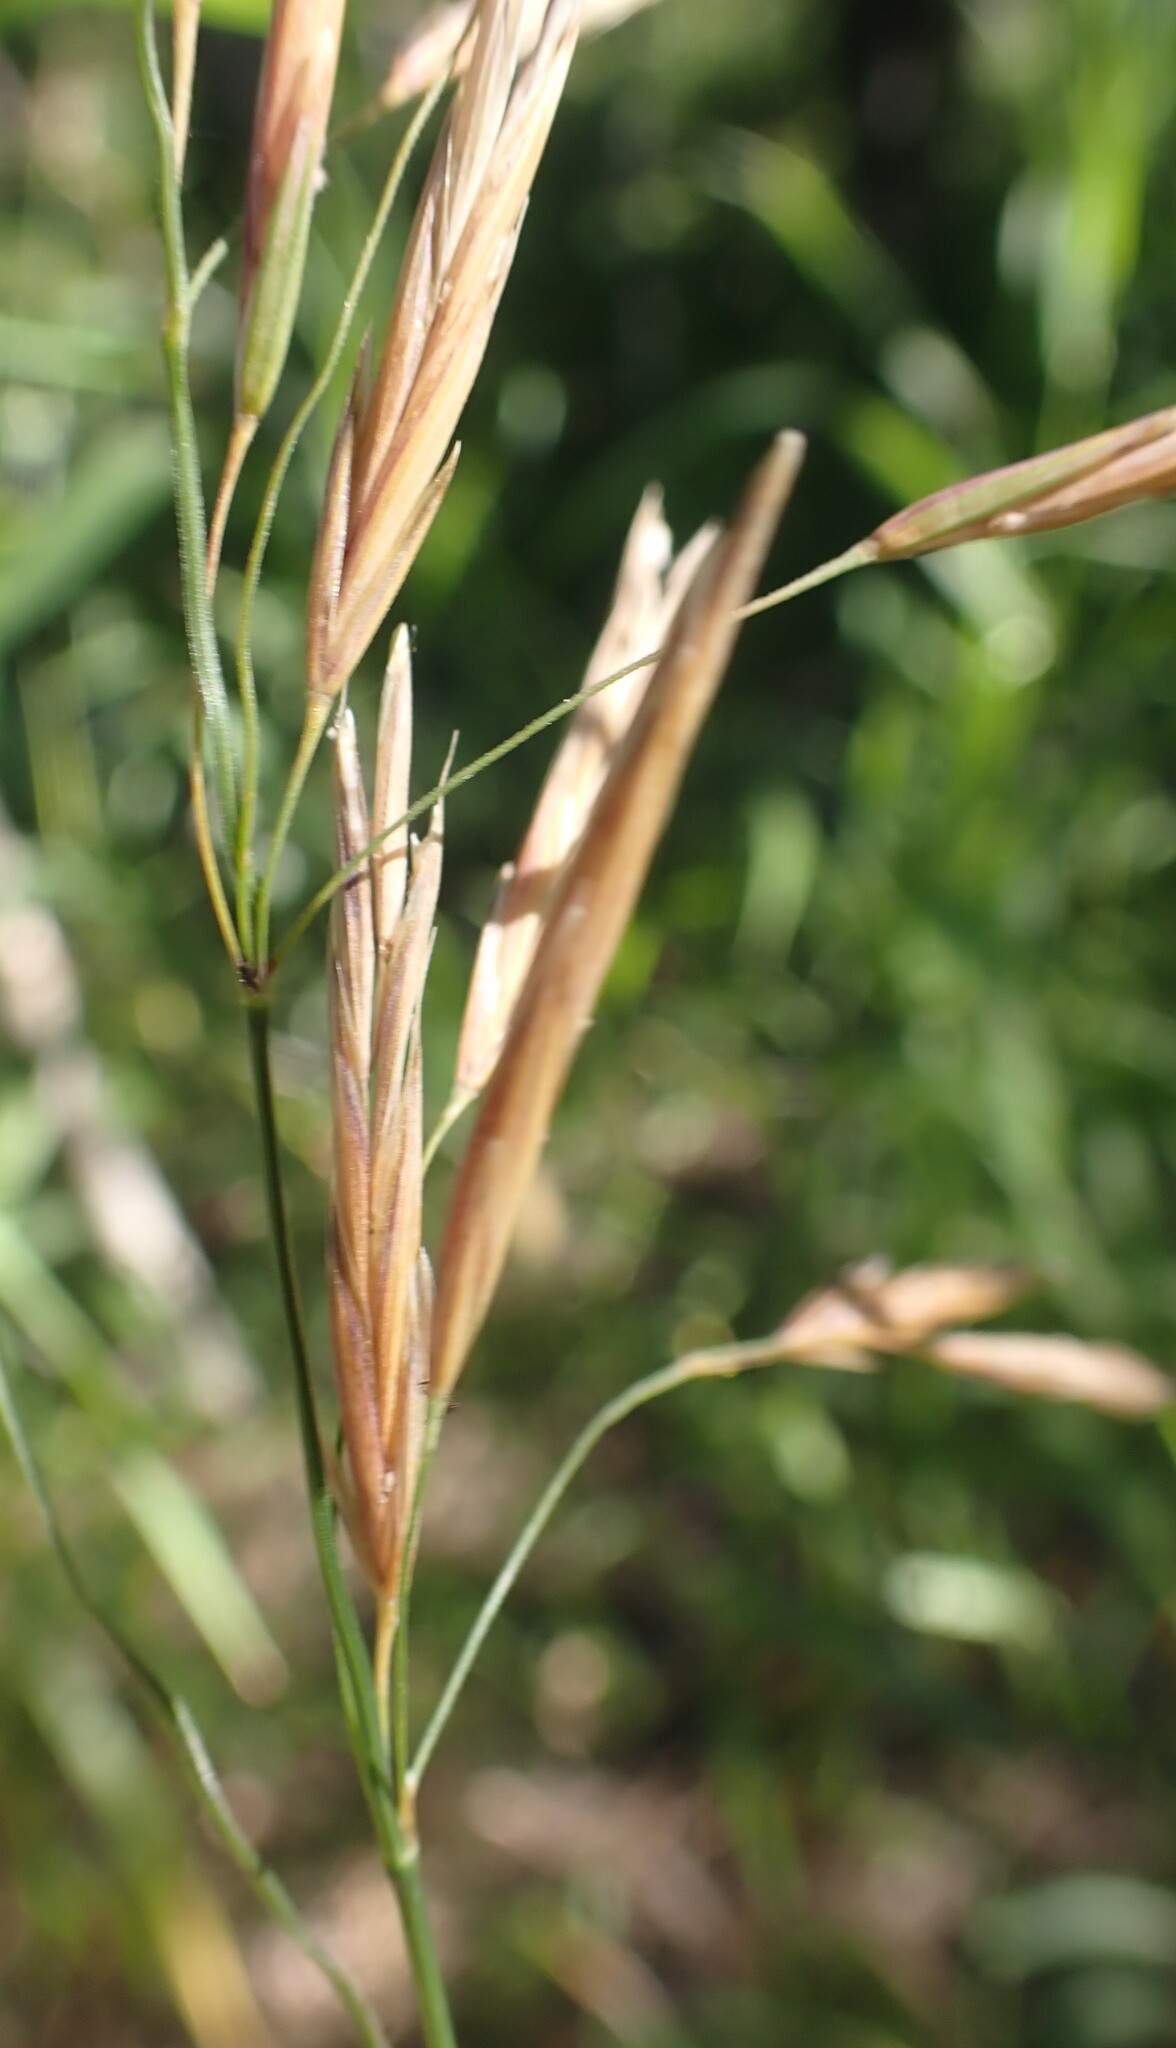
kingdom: Plantae
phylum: Tracheophyta
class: Liliopsida
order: Poales
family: Poaceae
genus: Bromus
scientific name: Bromus inermis
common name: Smooth brome
